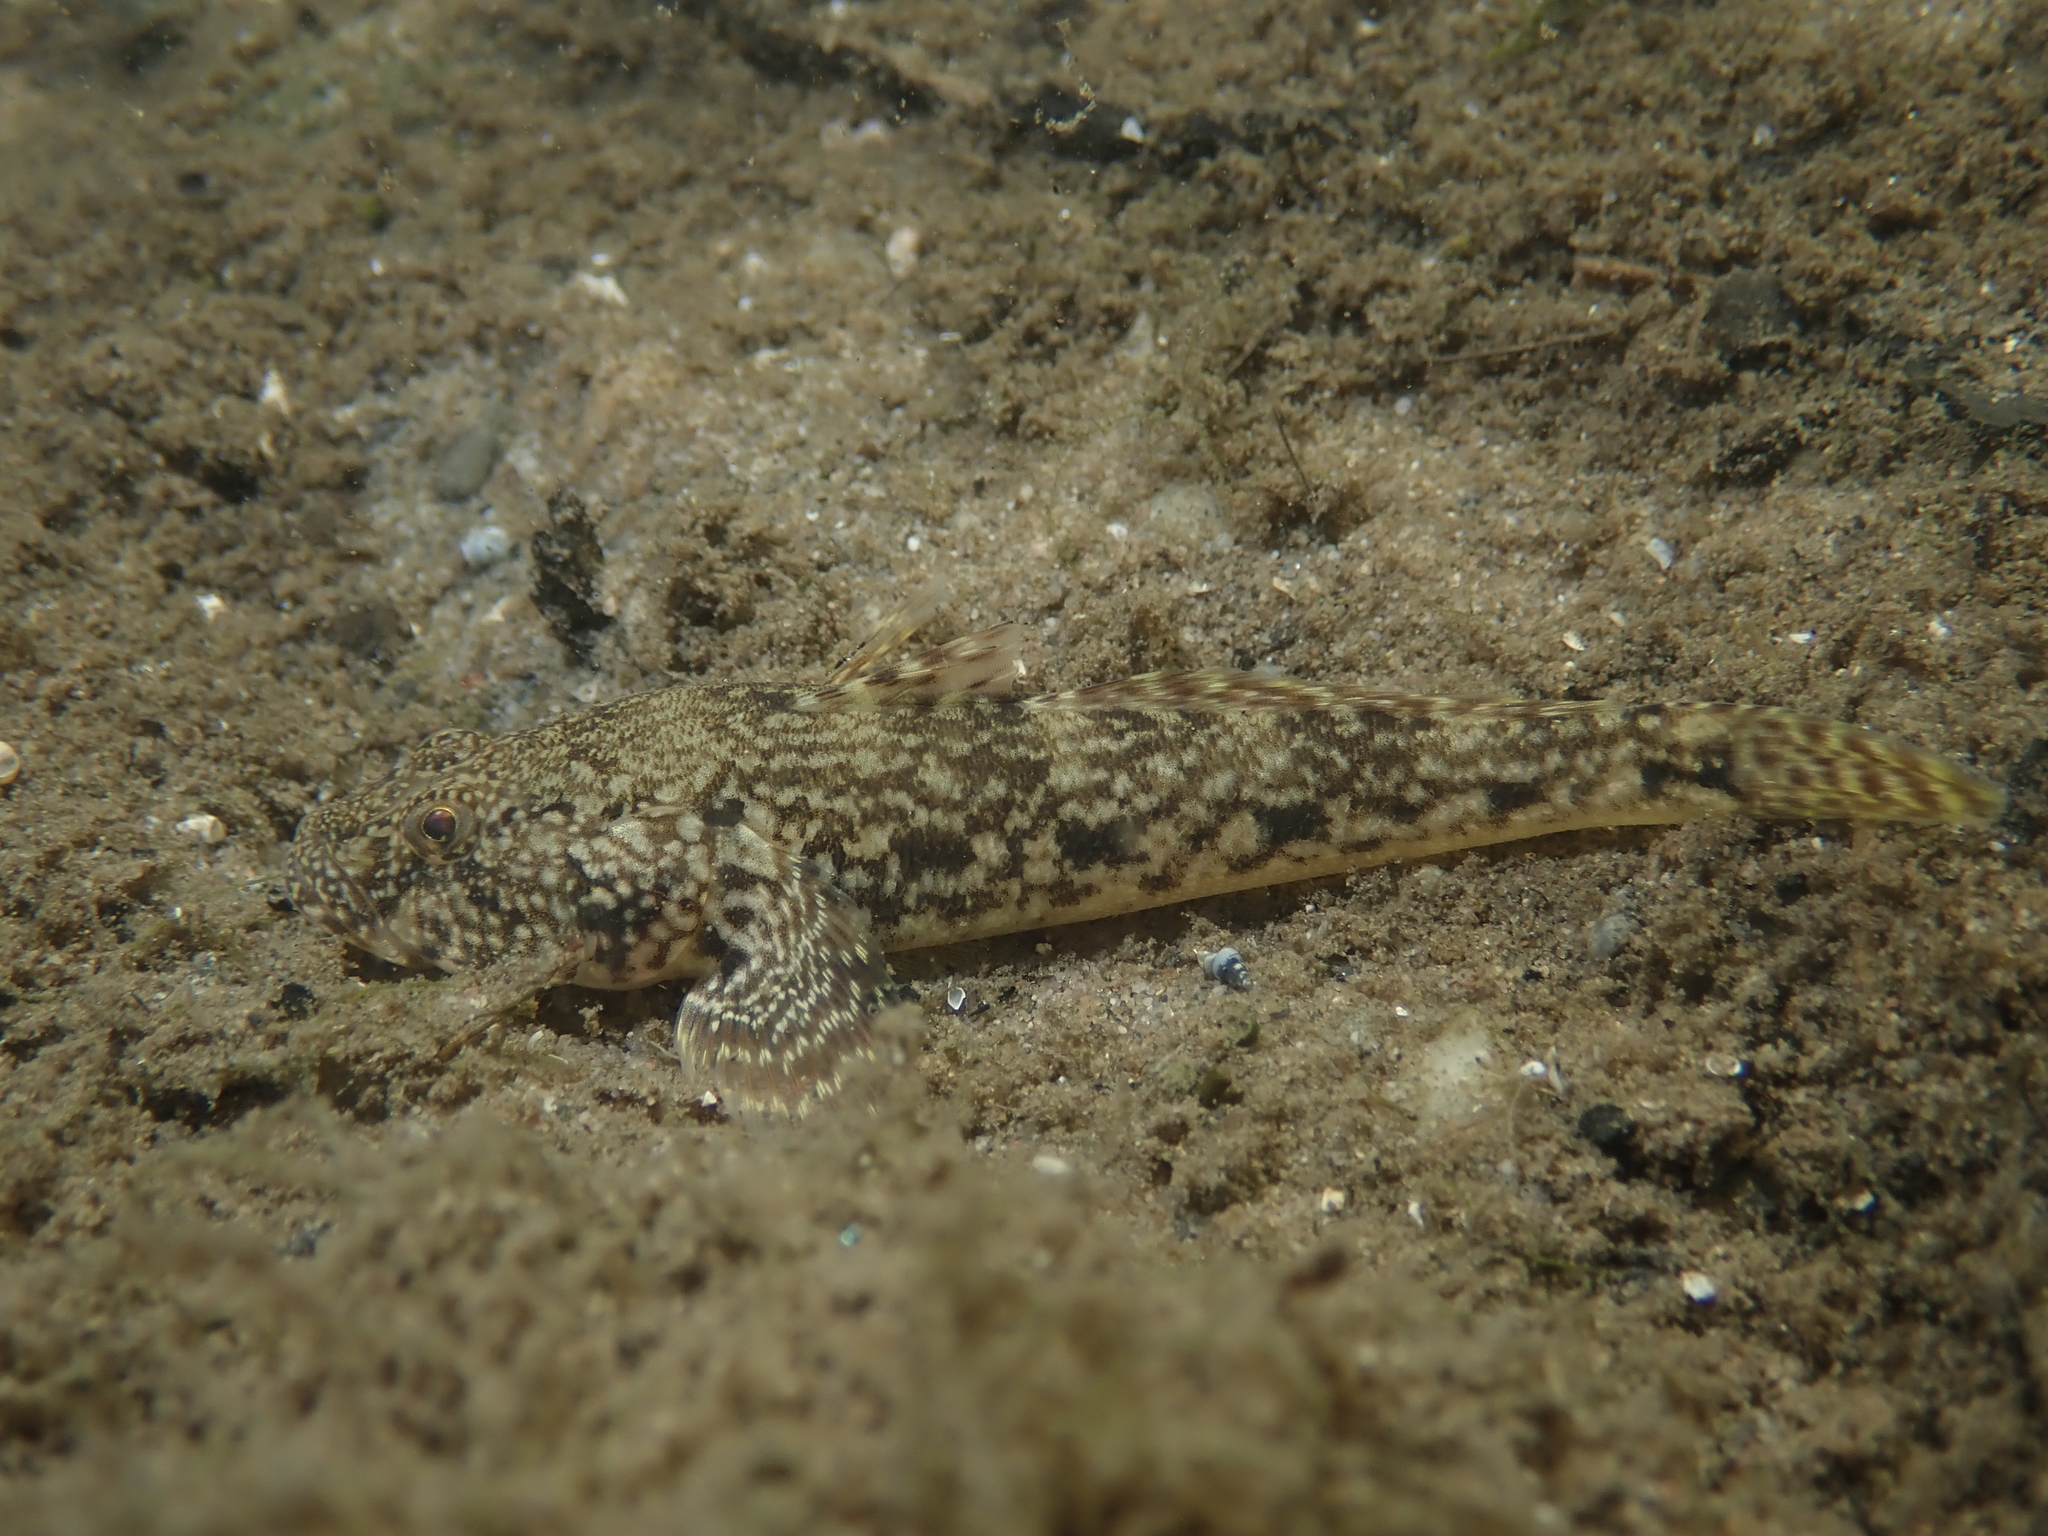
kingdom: Animalia
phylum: Chordata
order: Perciformes
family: Gobiidae
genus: Ponticola
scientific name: Ponticola kessleri
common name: Bighead goby
